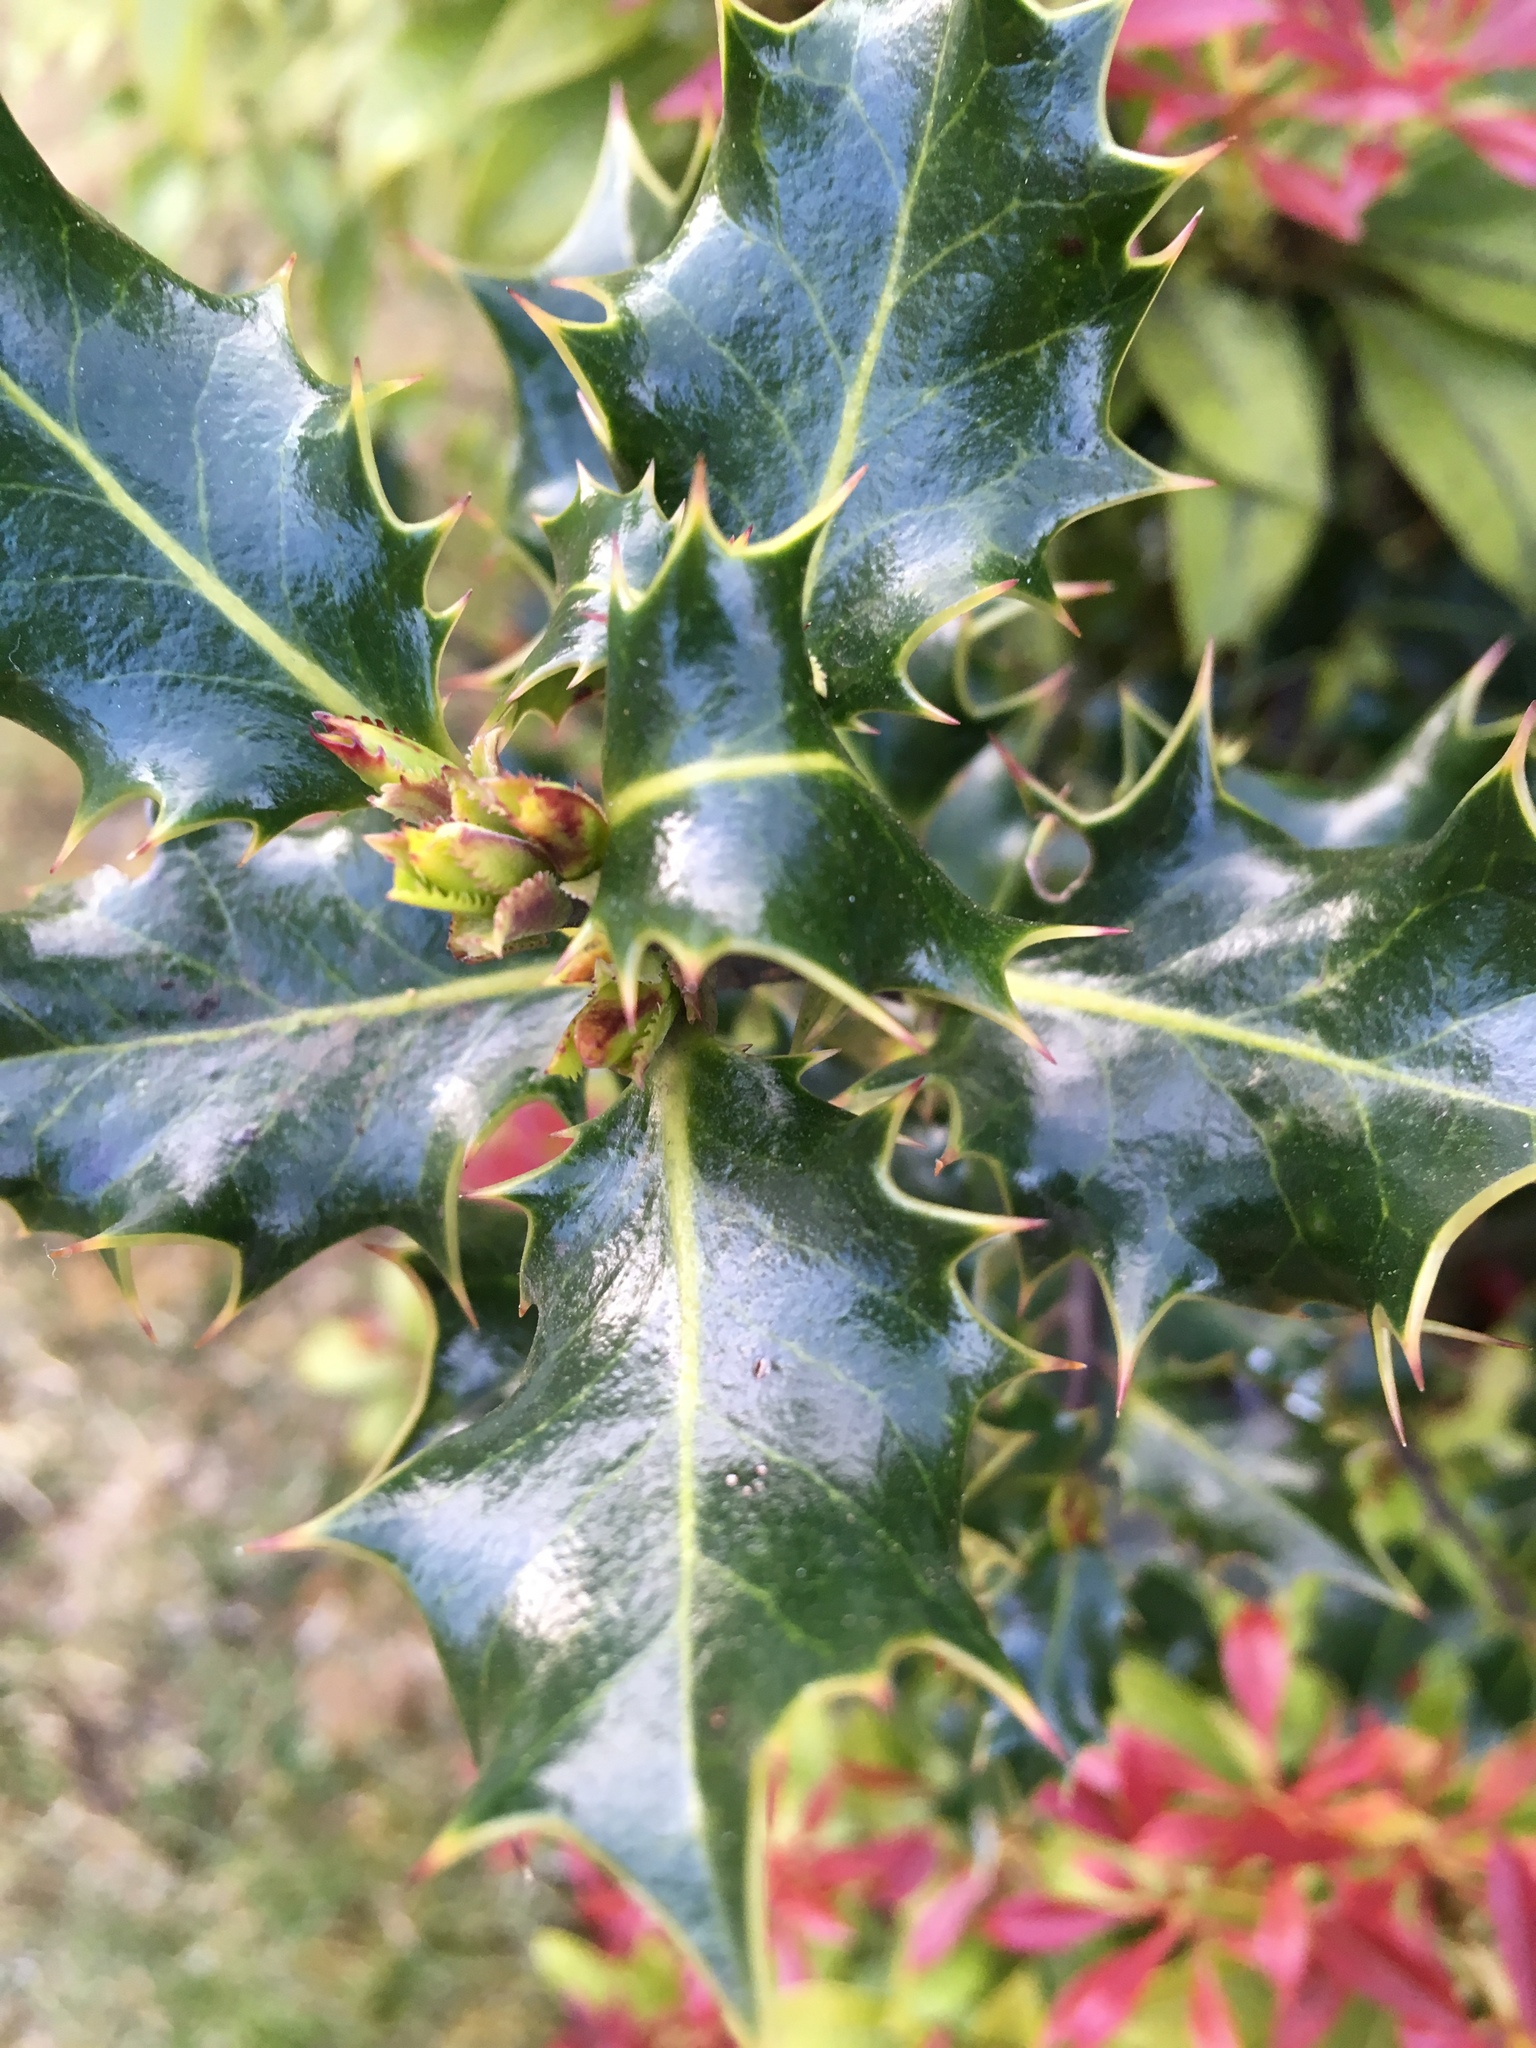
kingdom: Plantae
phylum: Tracheophyta
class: Magnoliopsida
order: Aquifoliales
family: Aquifoliaceae
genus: Ilex
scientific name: Ilex aquifolium
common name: English holly
